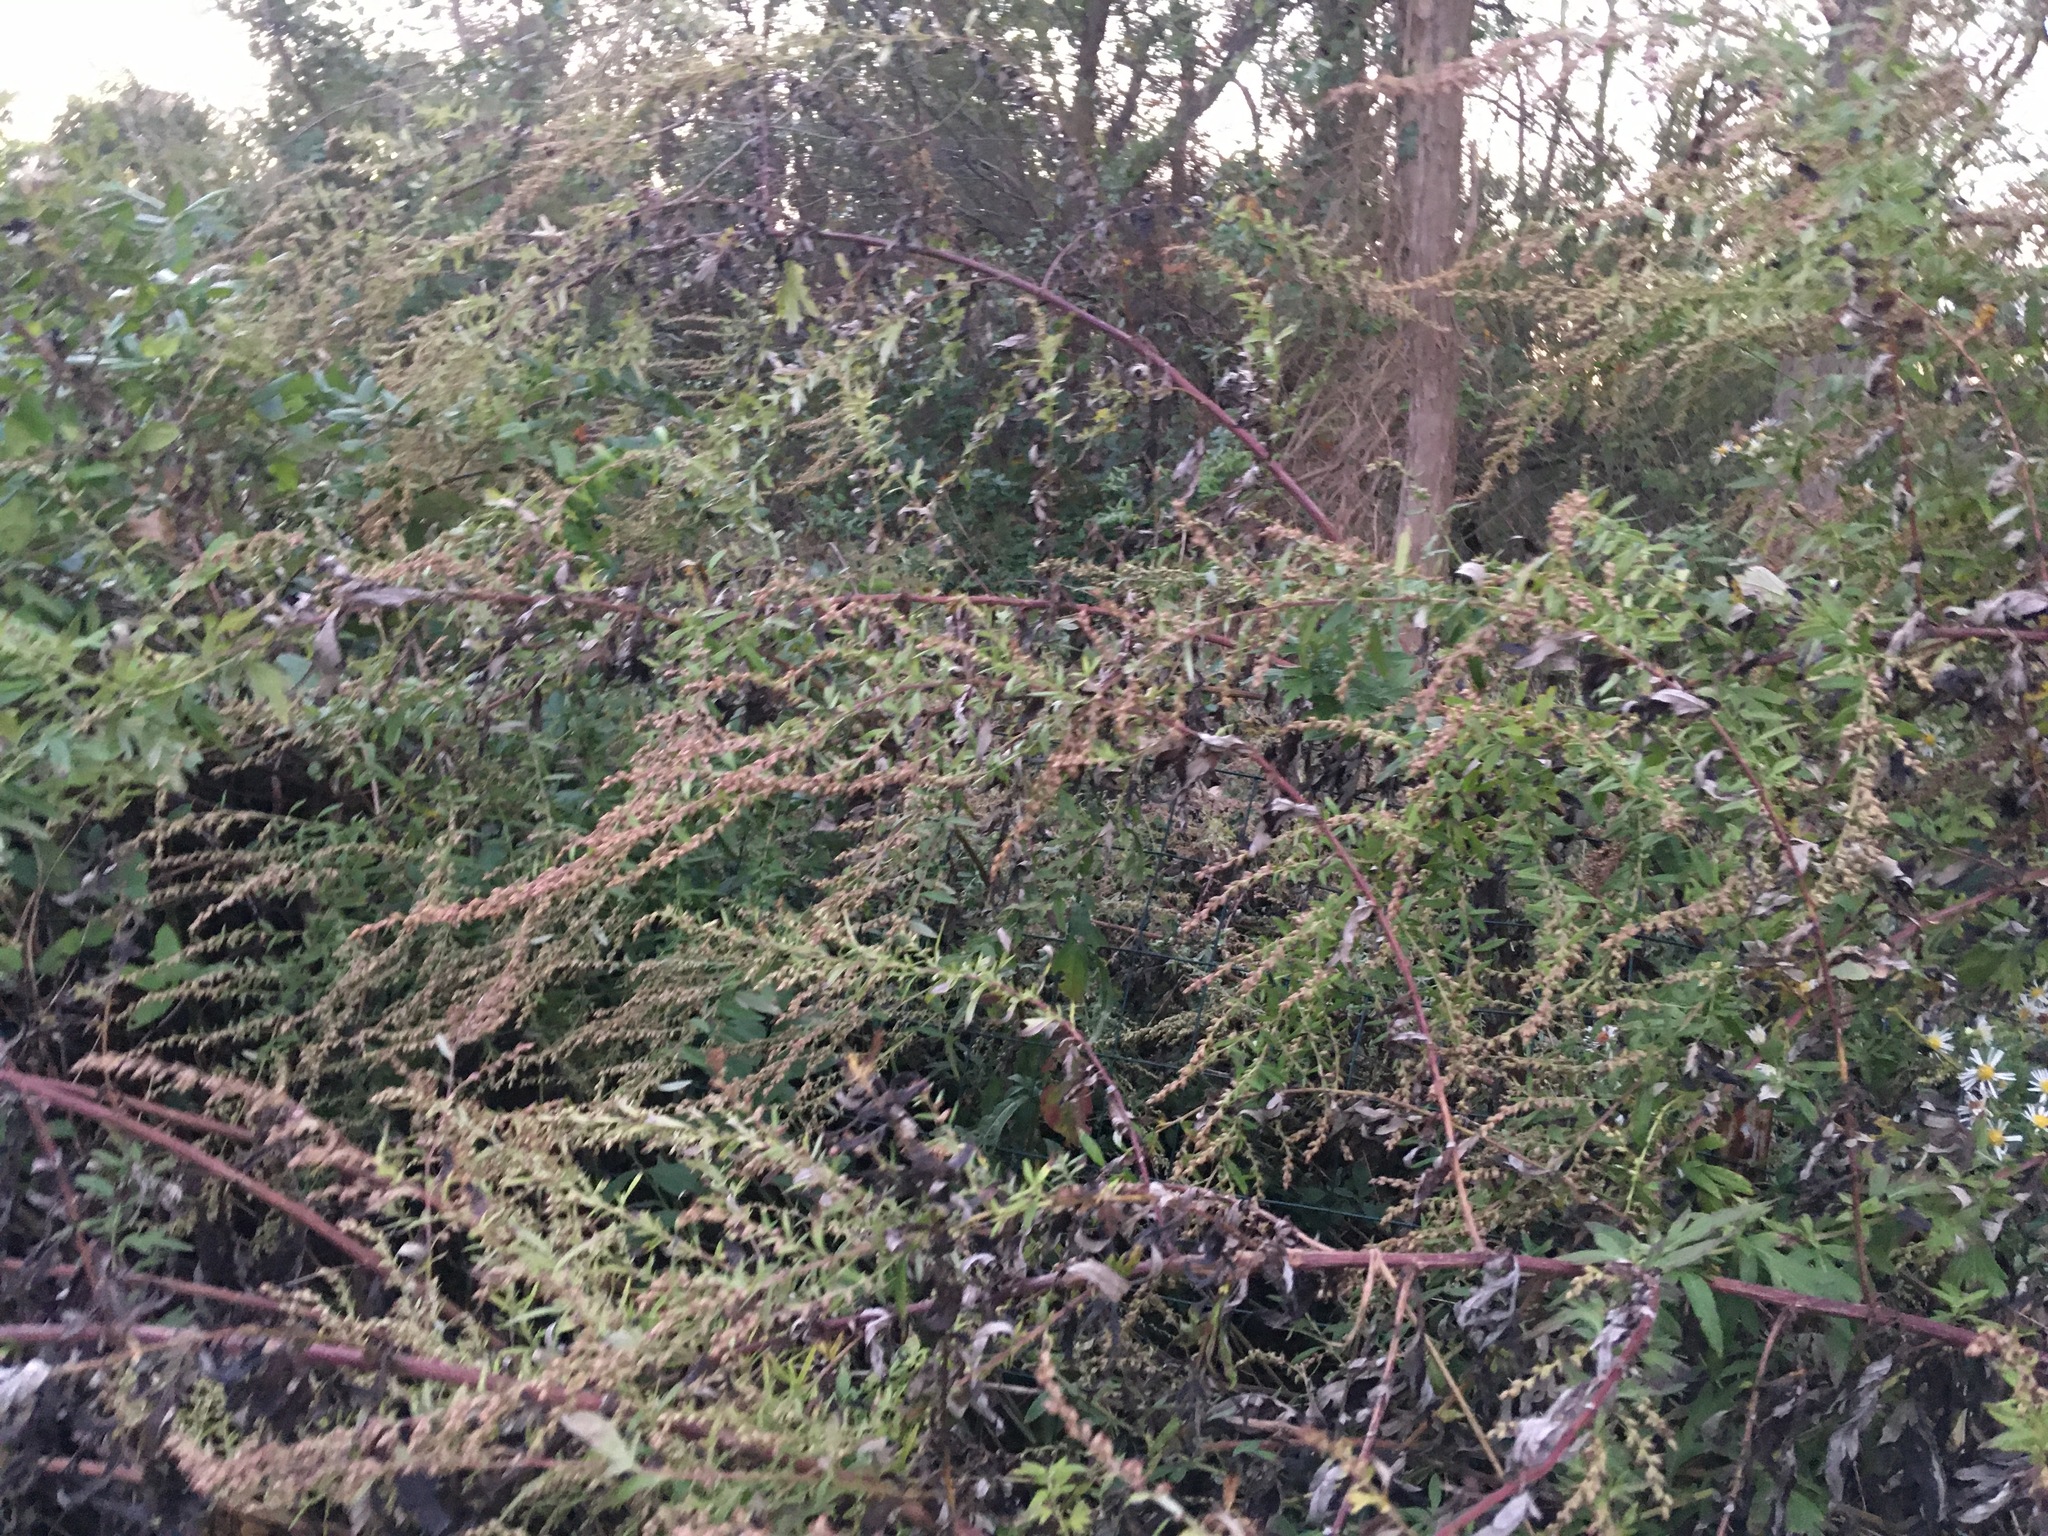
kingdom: Plantae
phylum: Tracheophyta
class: Magnoliopsida
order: Asterales
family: Asteraceae
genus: Artemisia
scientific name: Artemisia vulgaris
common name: Mugwort
